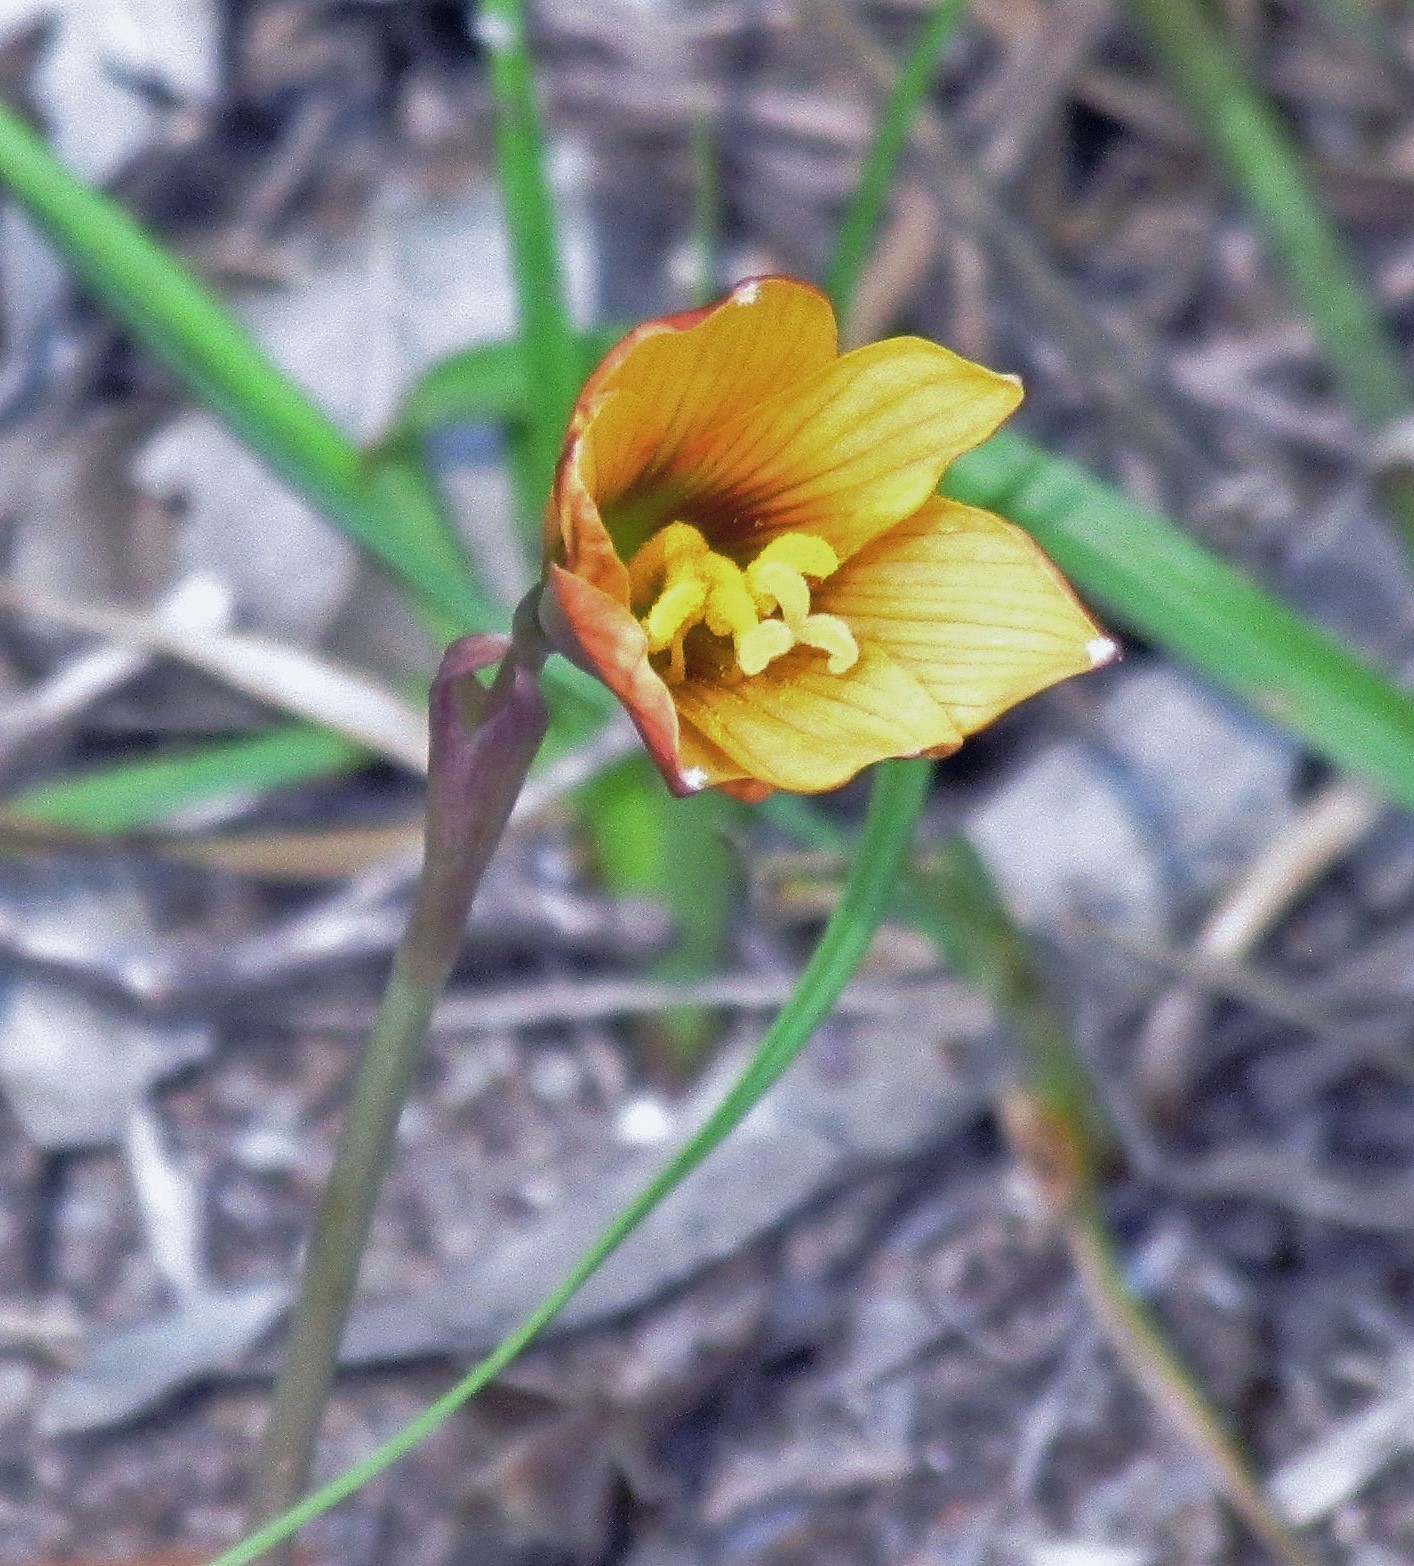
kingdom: Plantae
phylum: Tracheophyta
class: Liliopsida
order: Asparagales
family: Amaryllidaceae
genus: Zephyranthes
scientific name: Zephyranthes tubispatha
